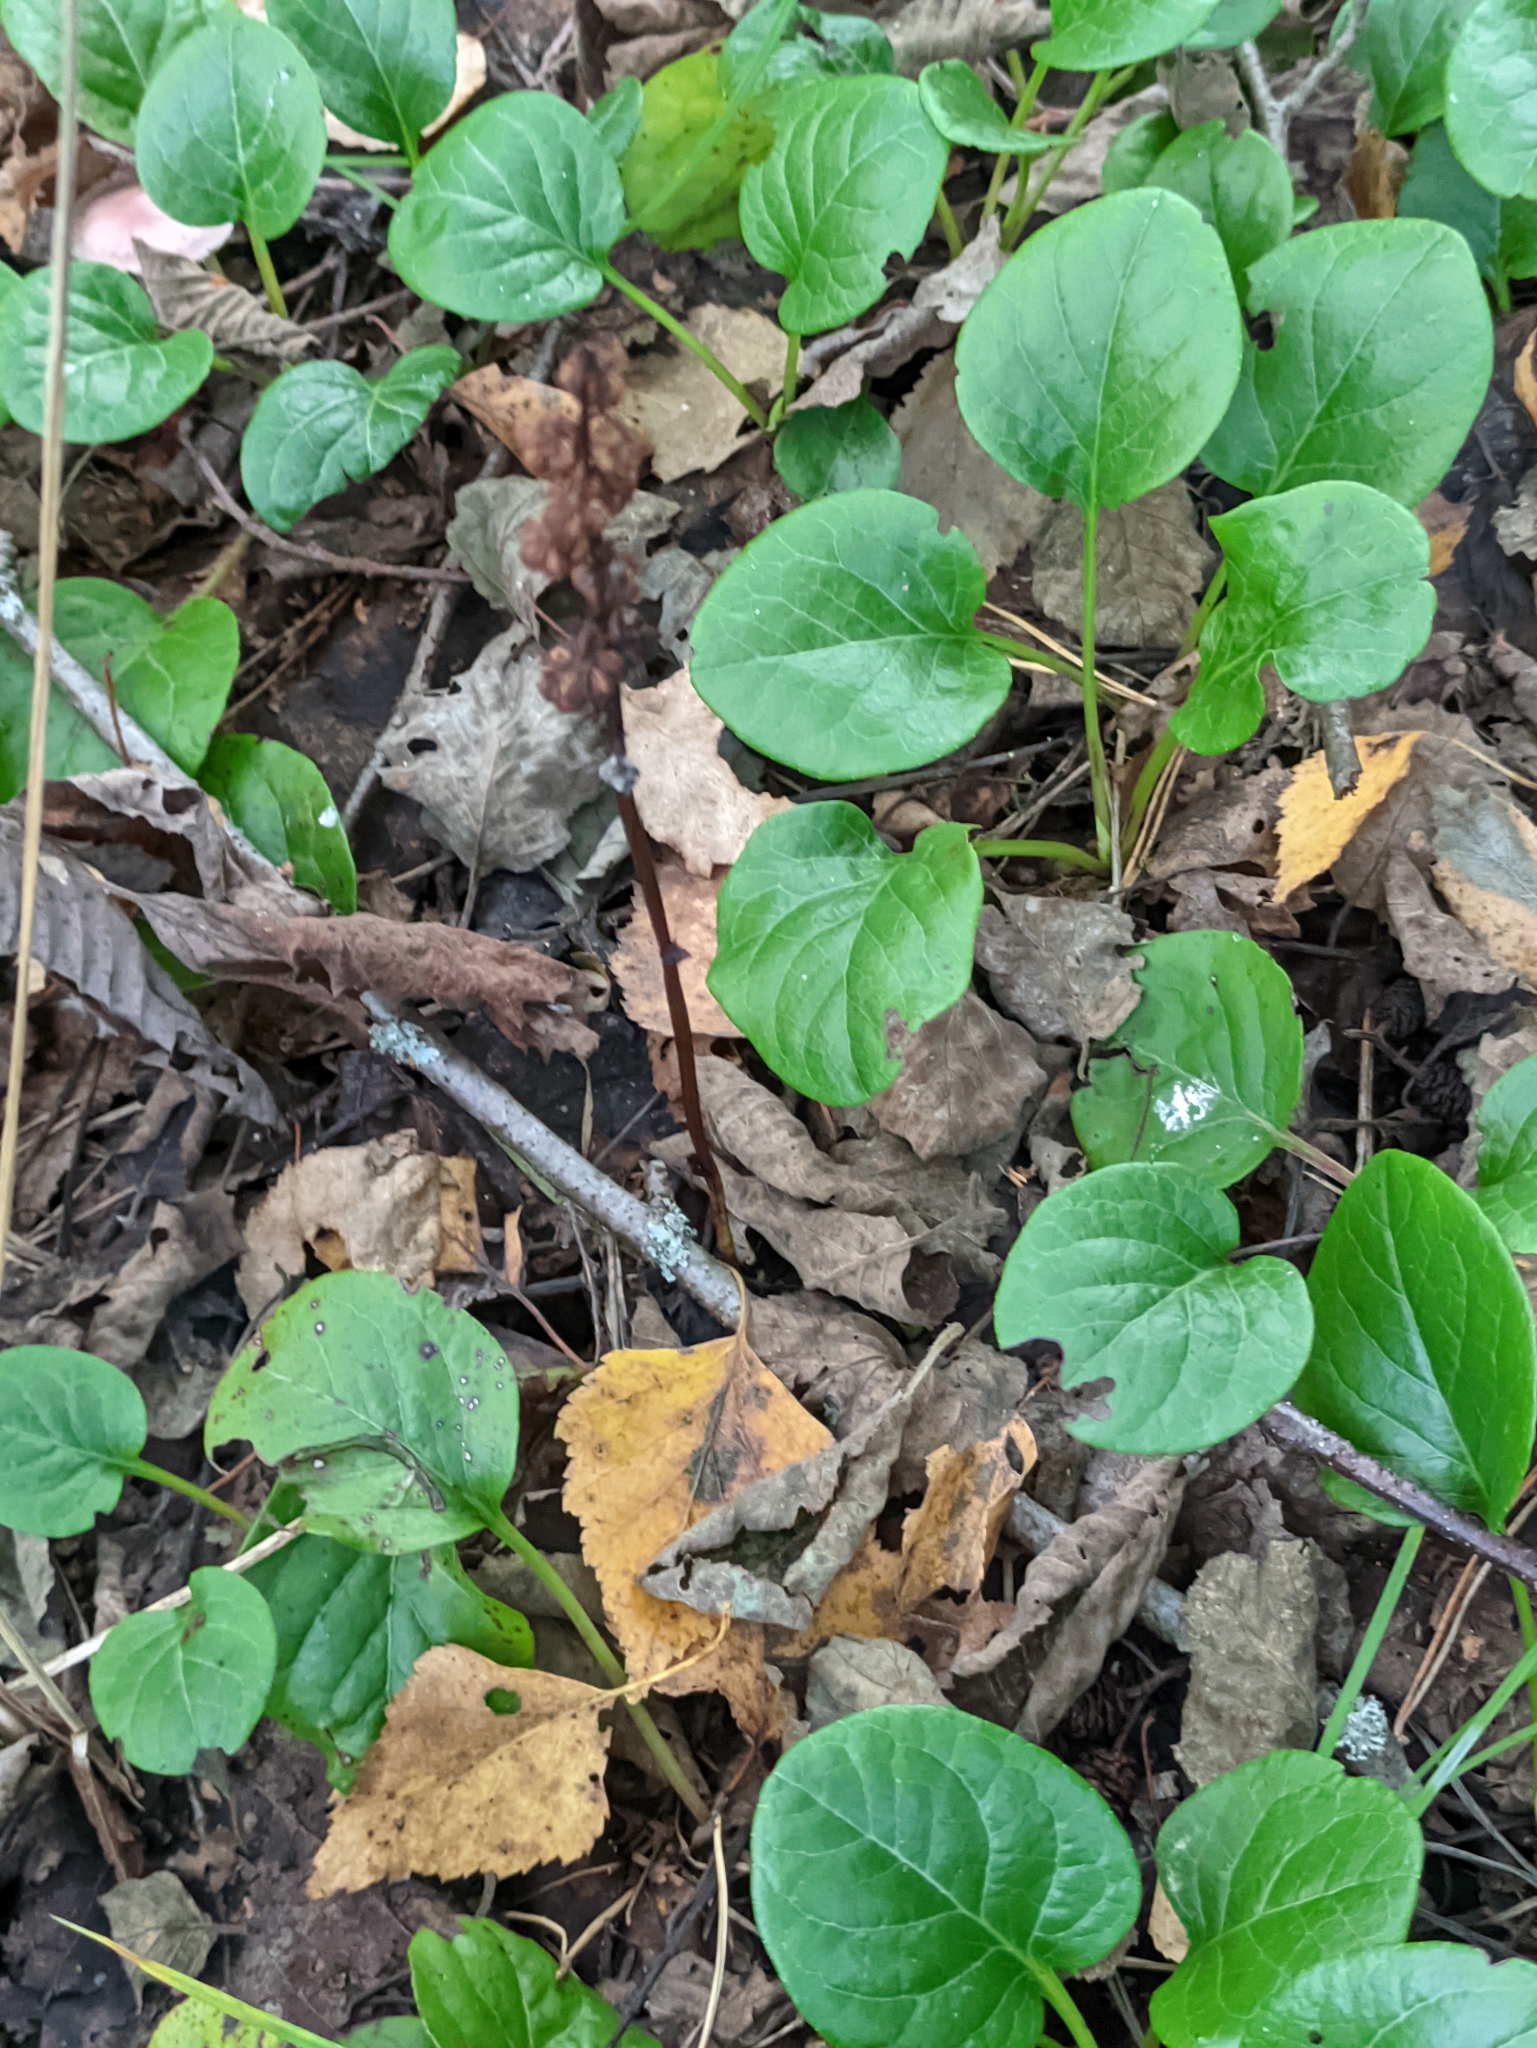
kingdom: Plantae
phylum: Tracheophyta
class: Magnoliopsida
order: Ericales
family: Ericaceae
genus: Pyrola
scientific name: Pyrola rotundifolia
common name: Round-leaved wintergreen
